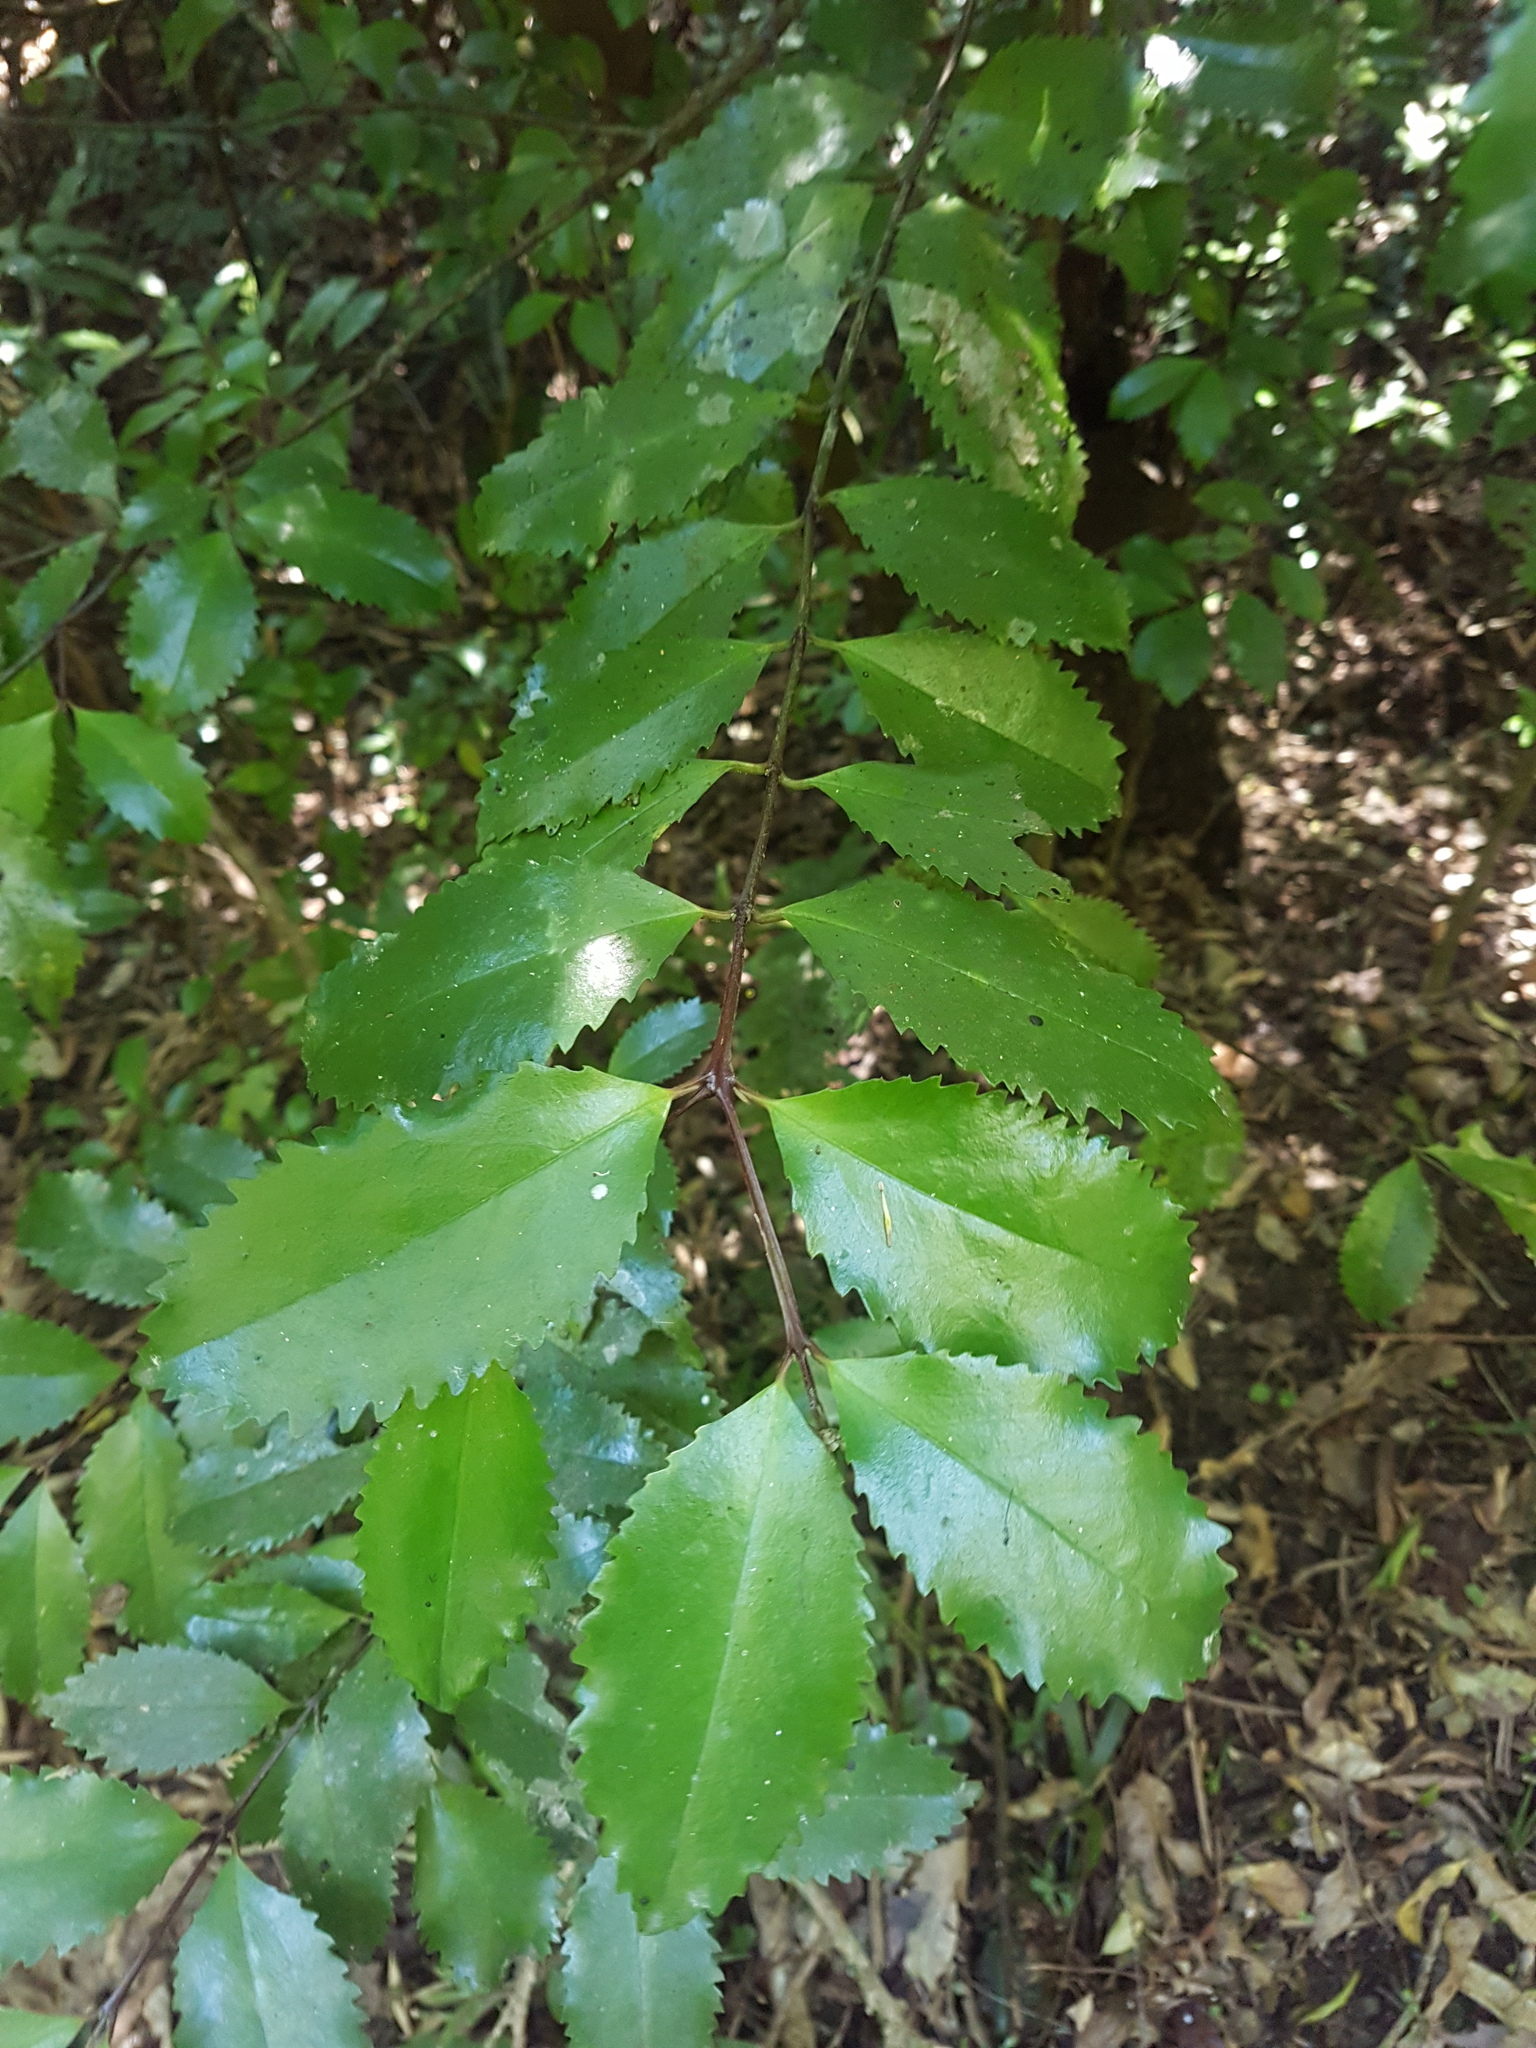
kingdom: Plantae
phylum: Tracheophyta
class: Magnoliopsida
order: Laurales
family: Atherospermataceae
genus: Laurelia
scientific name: Laurelia novae-zelandiae
